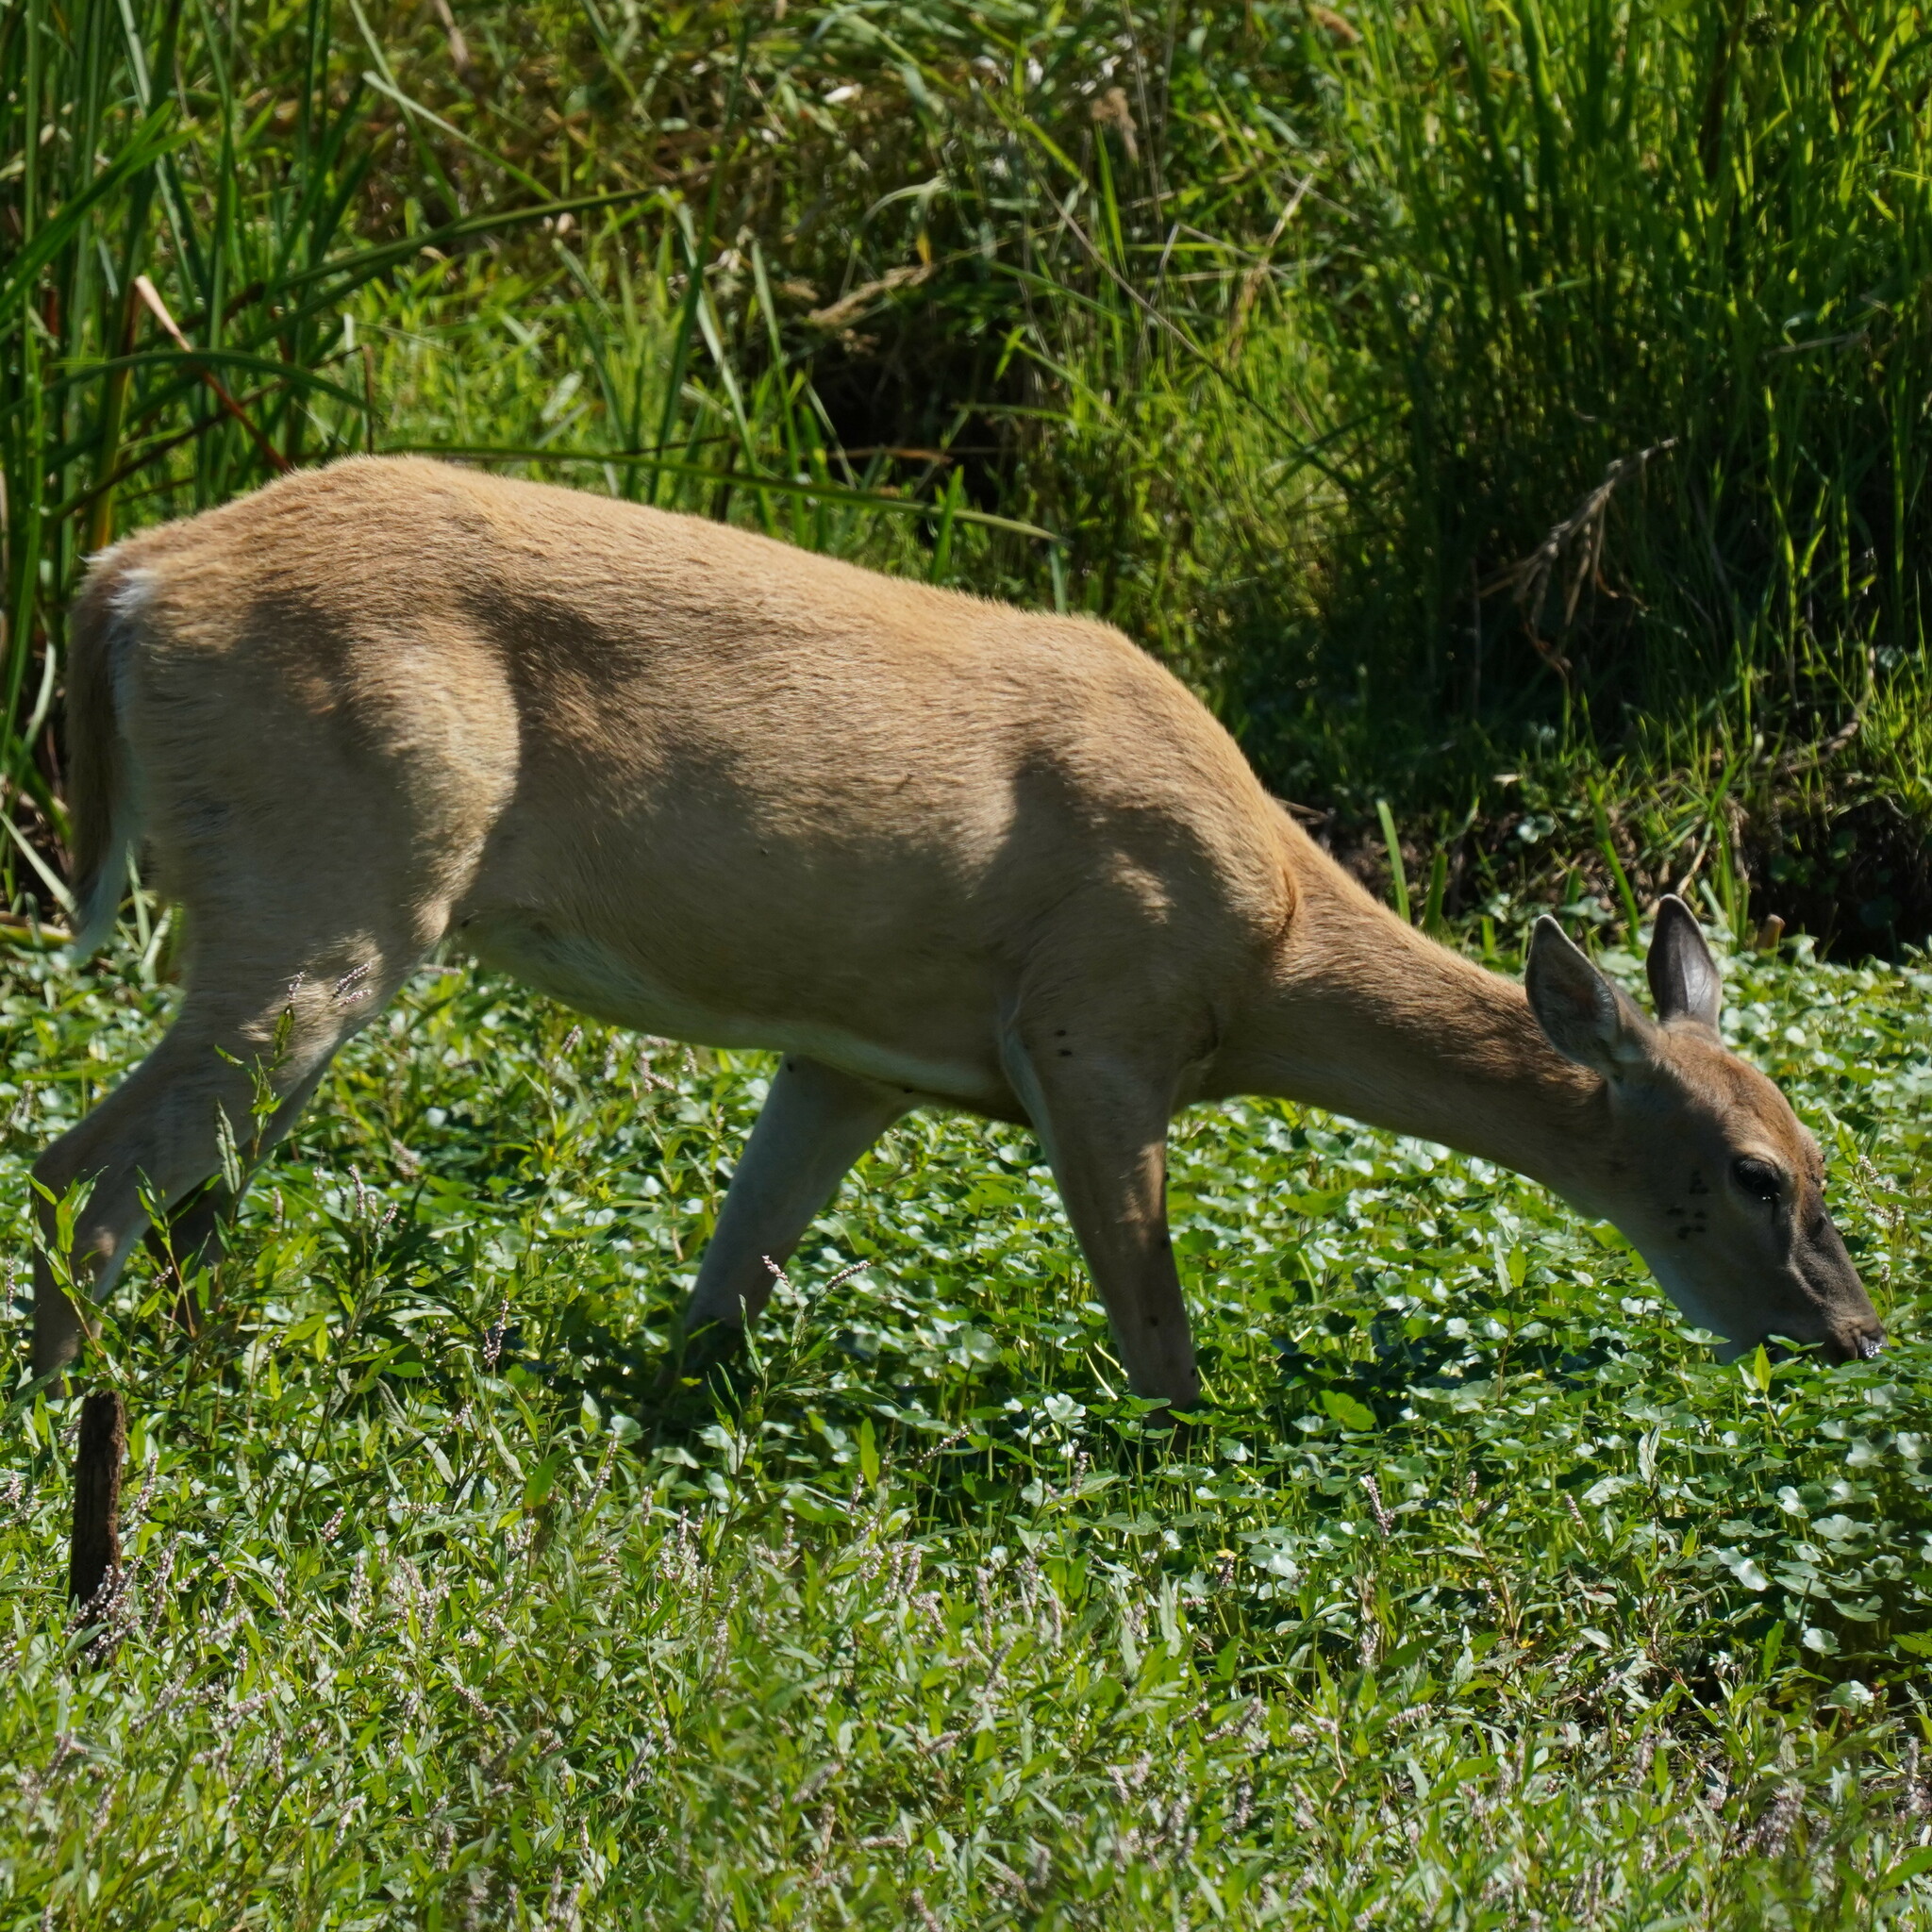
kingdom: Animalia
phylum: Chordata
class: Mammalia
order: Artiodactyla
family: Cervidae
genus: Odocoileus
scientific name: Odocoileus virginianus
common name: White-tailed deer
